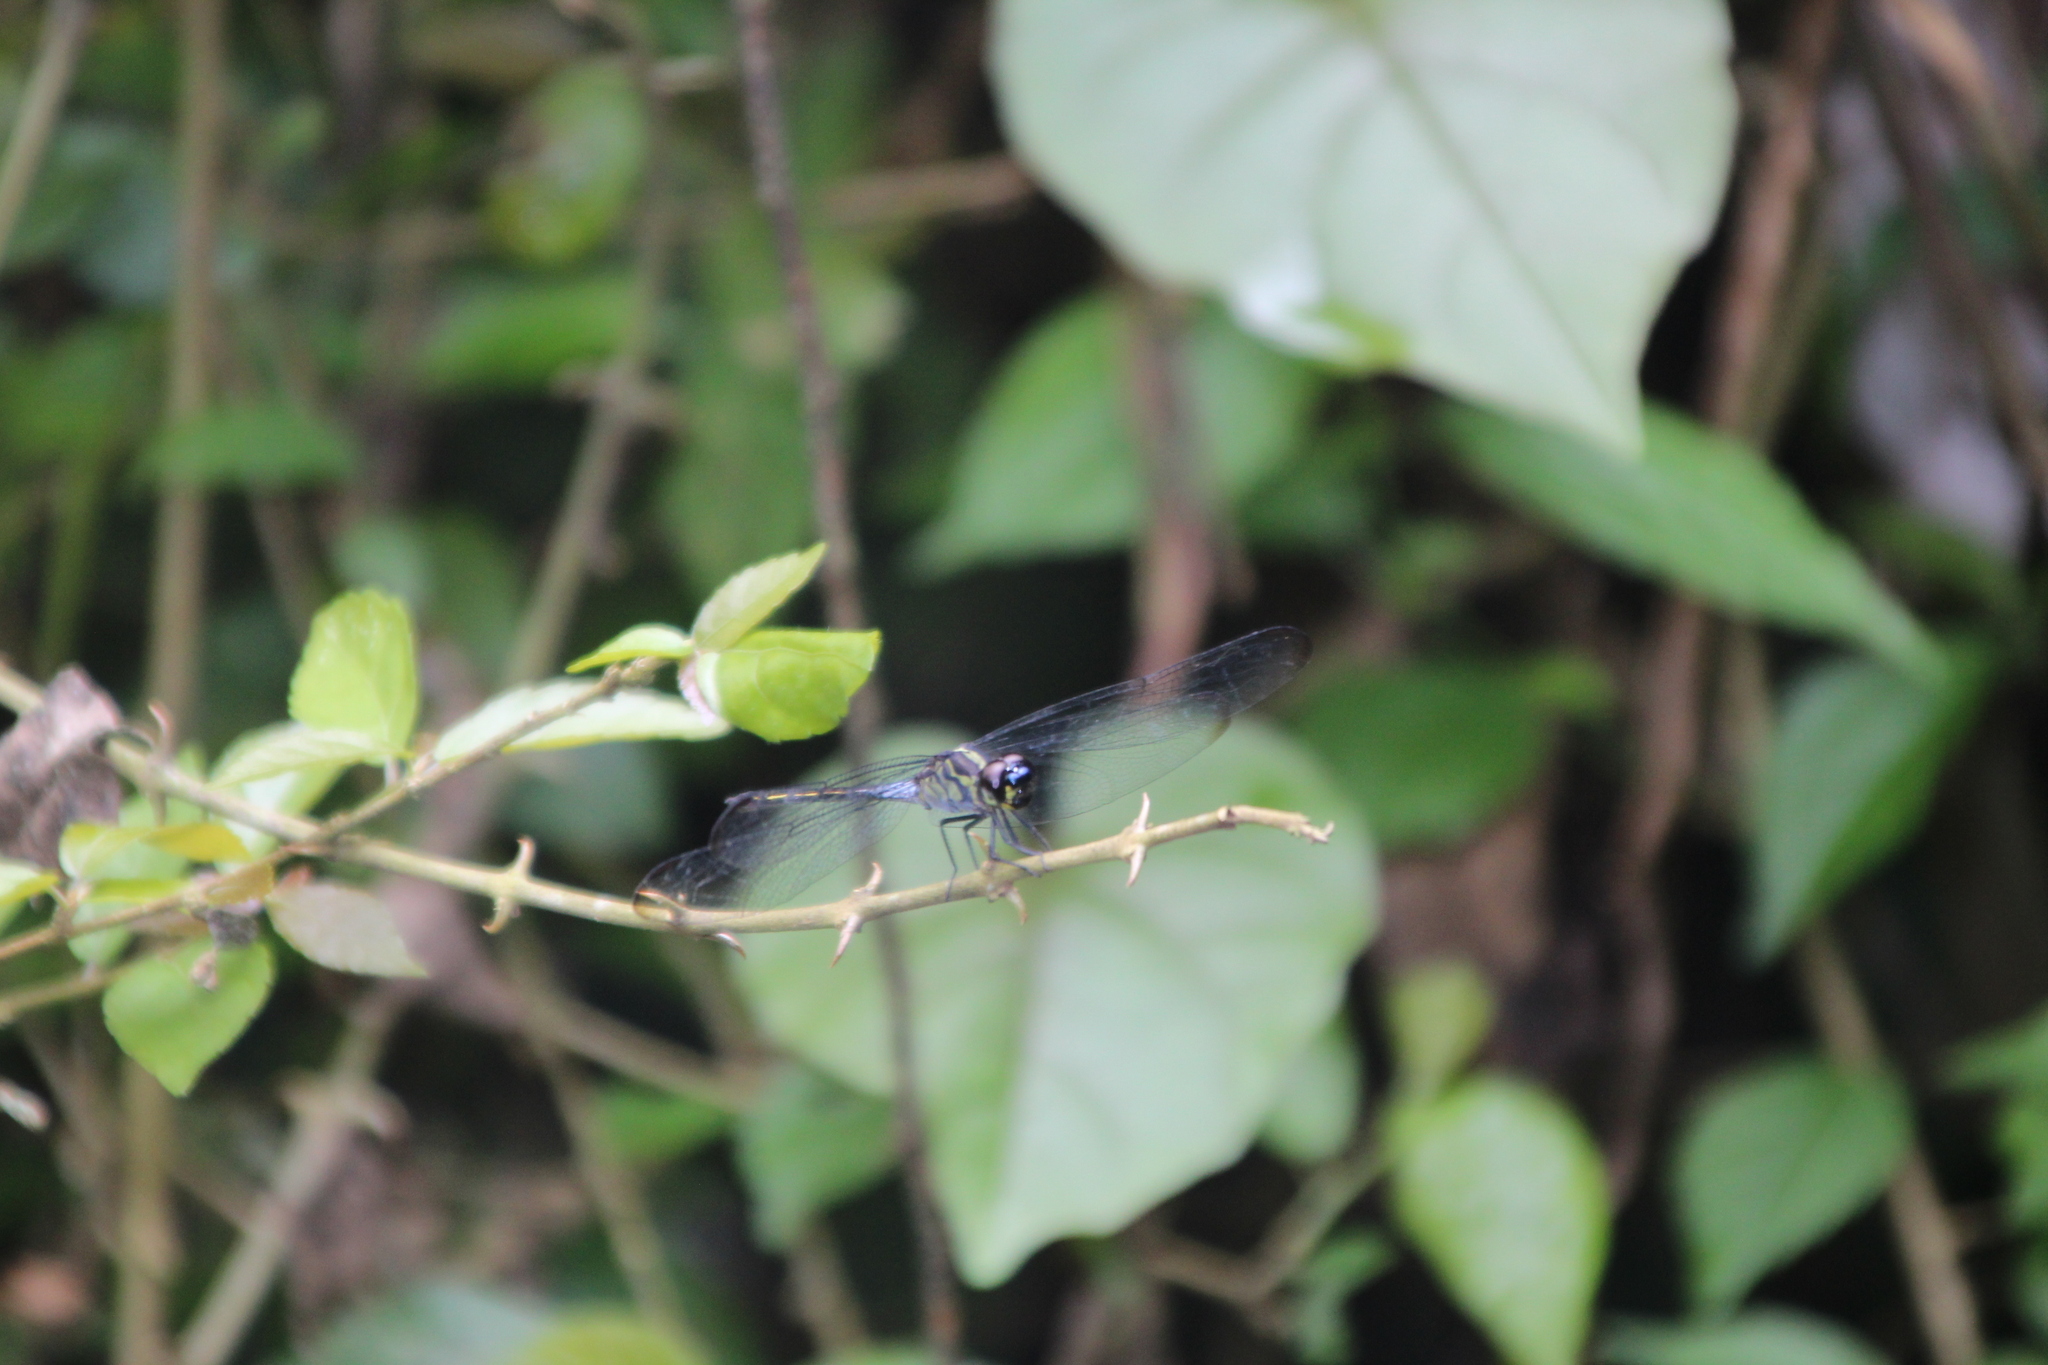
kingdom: Animalia
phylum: Arthropoda
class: Insecta
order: Odonata
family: Libellulidae
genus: Hadrothemis
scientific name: Hadrothemis infesta
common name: Slender jungleskimmer
